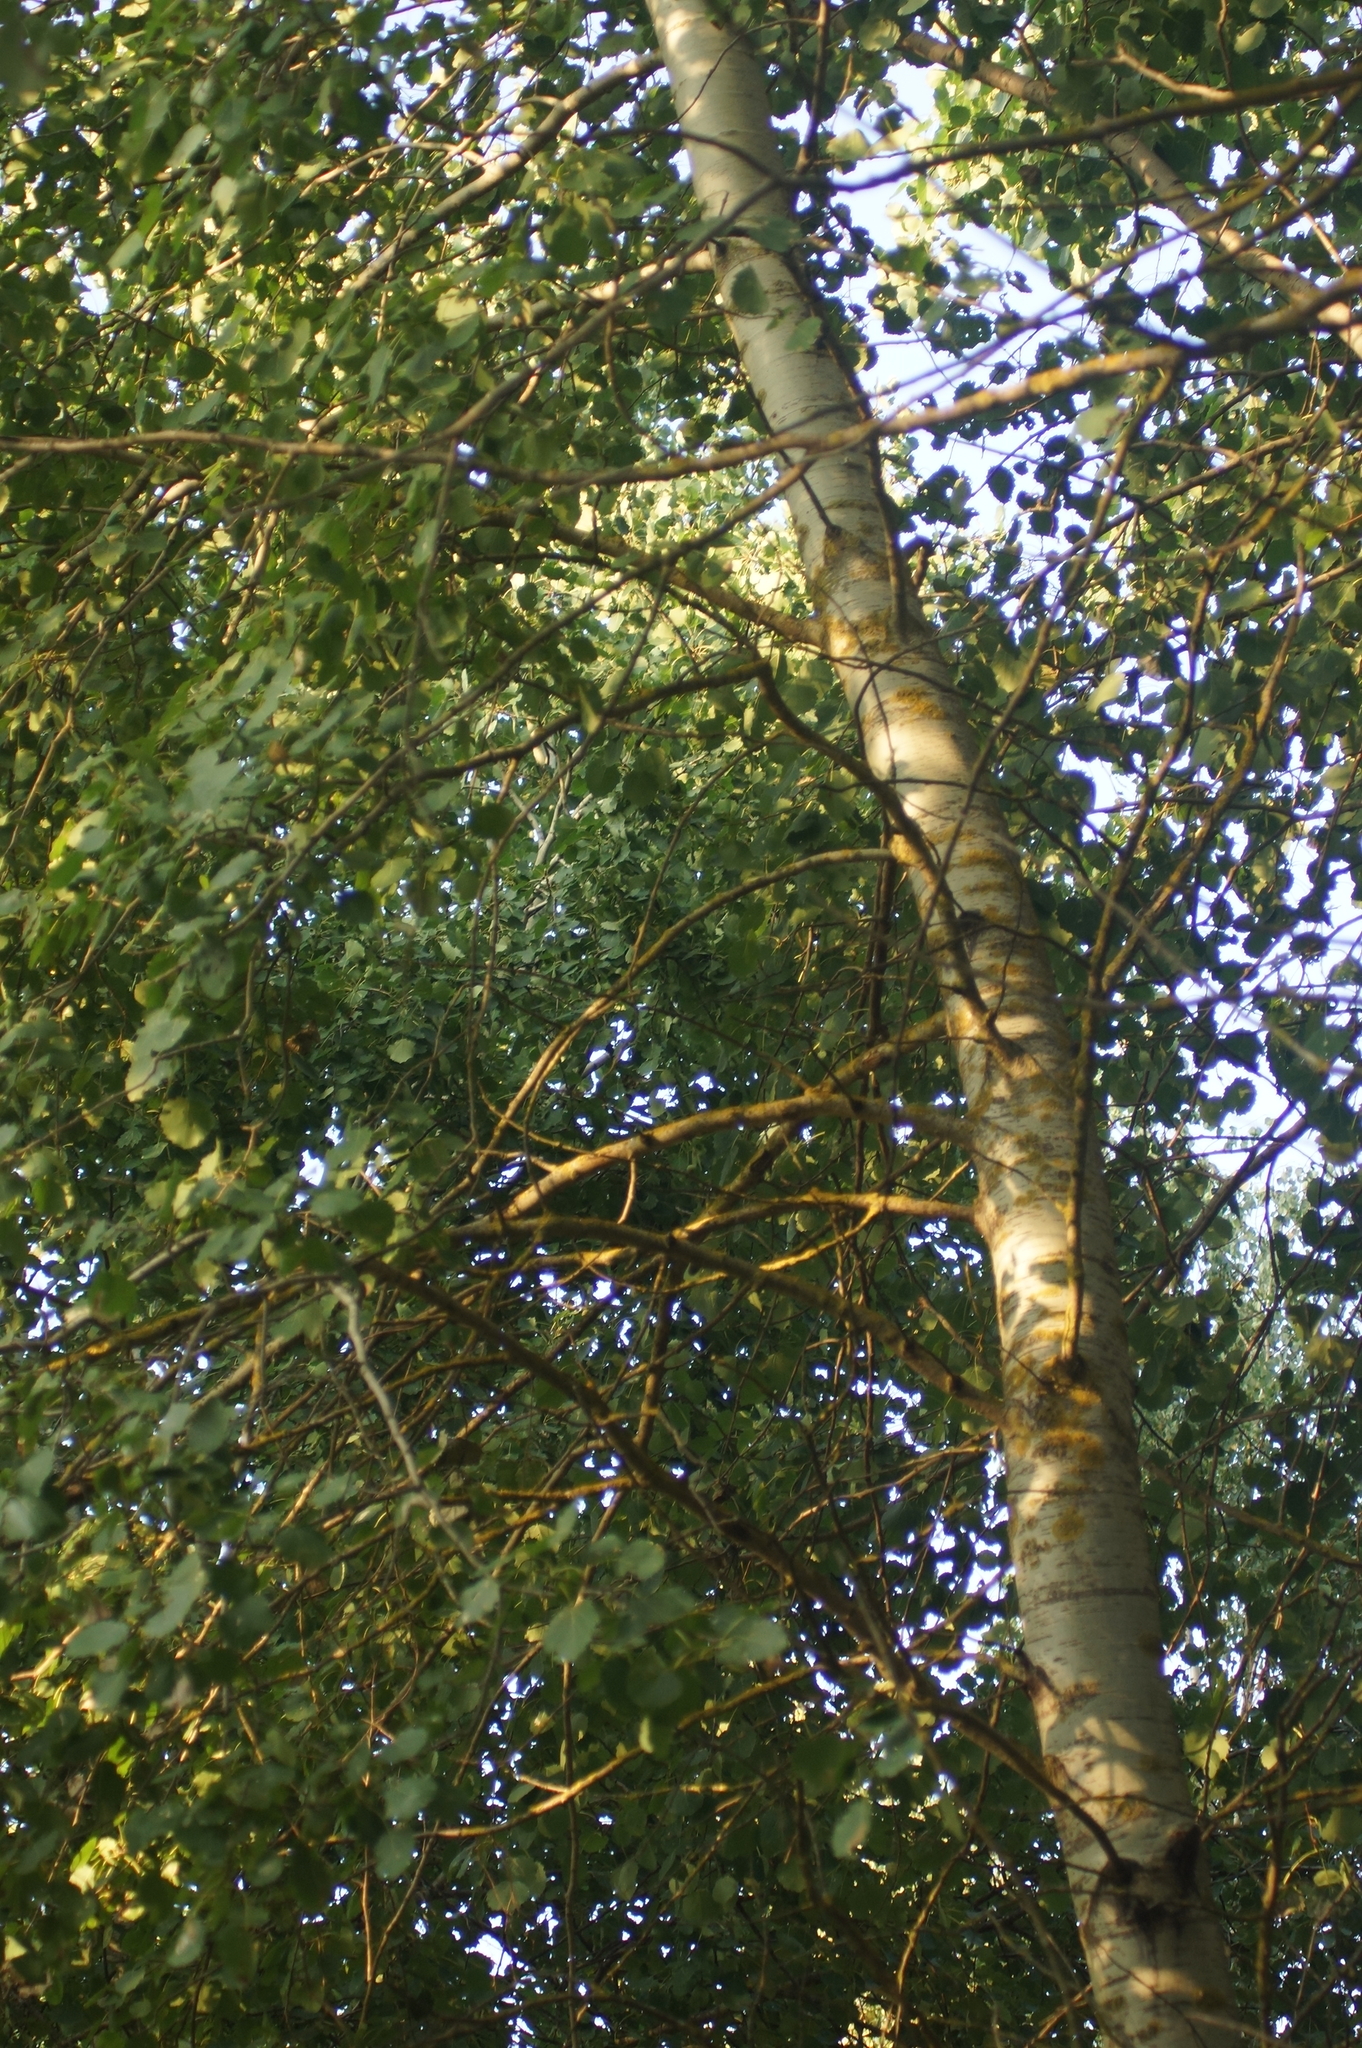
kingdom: Plantae
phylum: Tracheophyta
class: Magnoliopsida
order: Malpighiales
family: Salicaceae
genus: Populus
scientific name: Populus tremula
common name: European aspen
